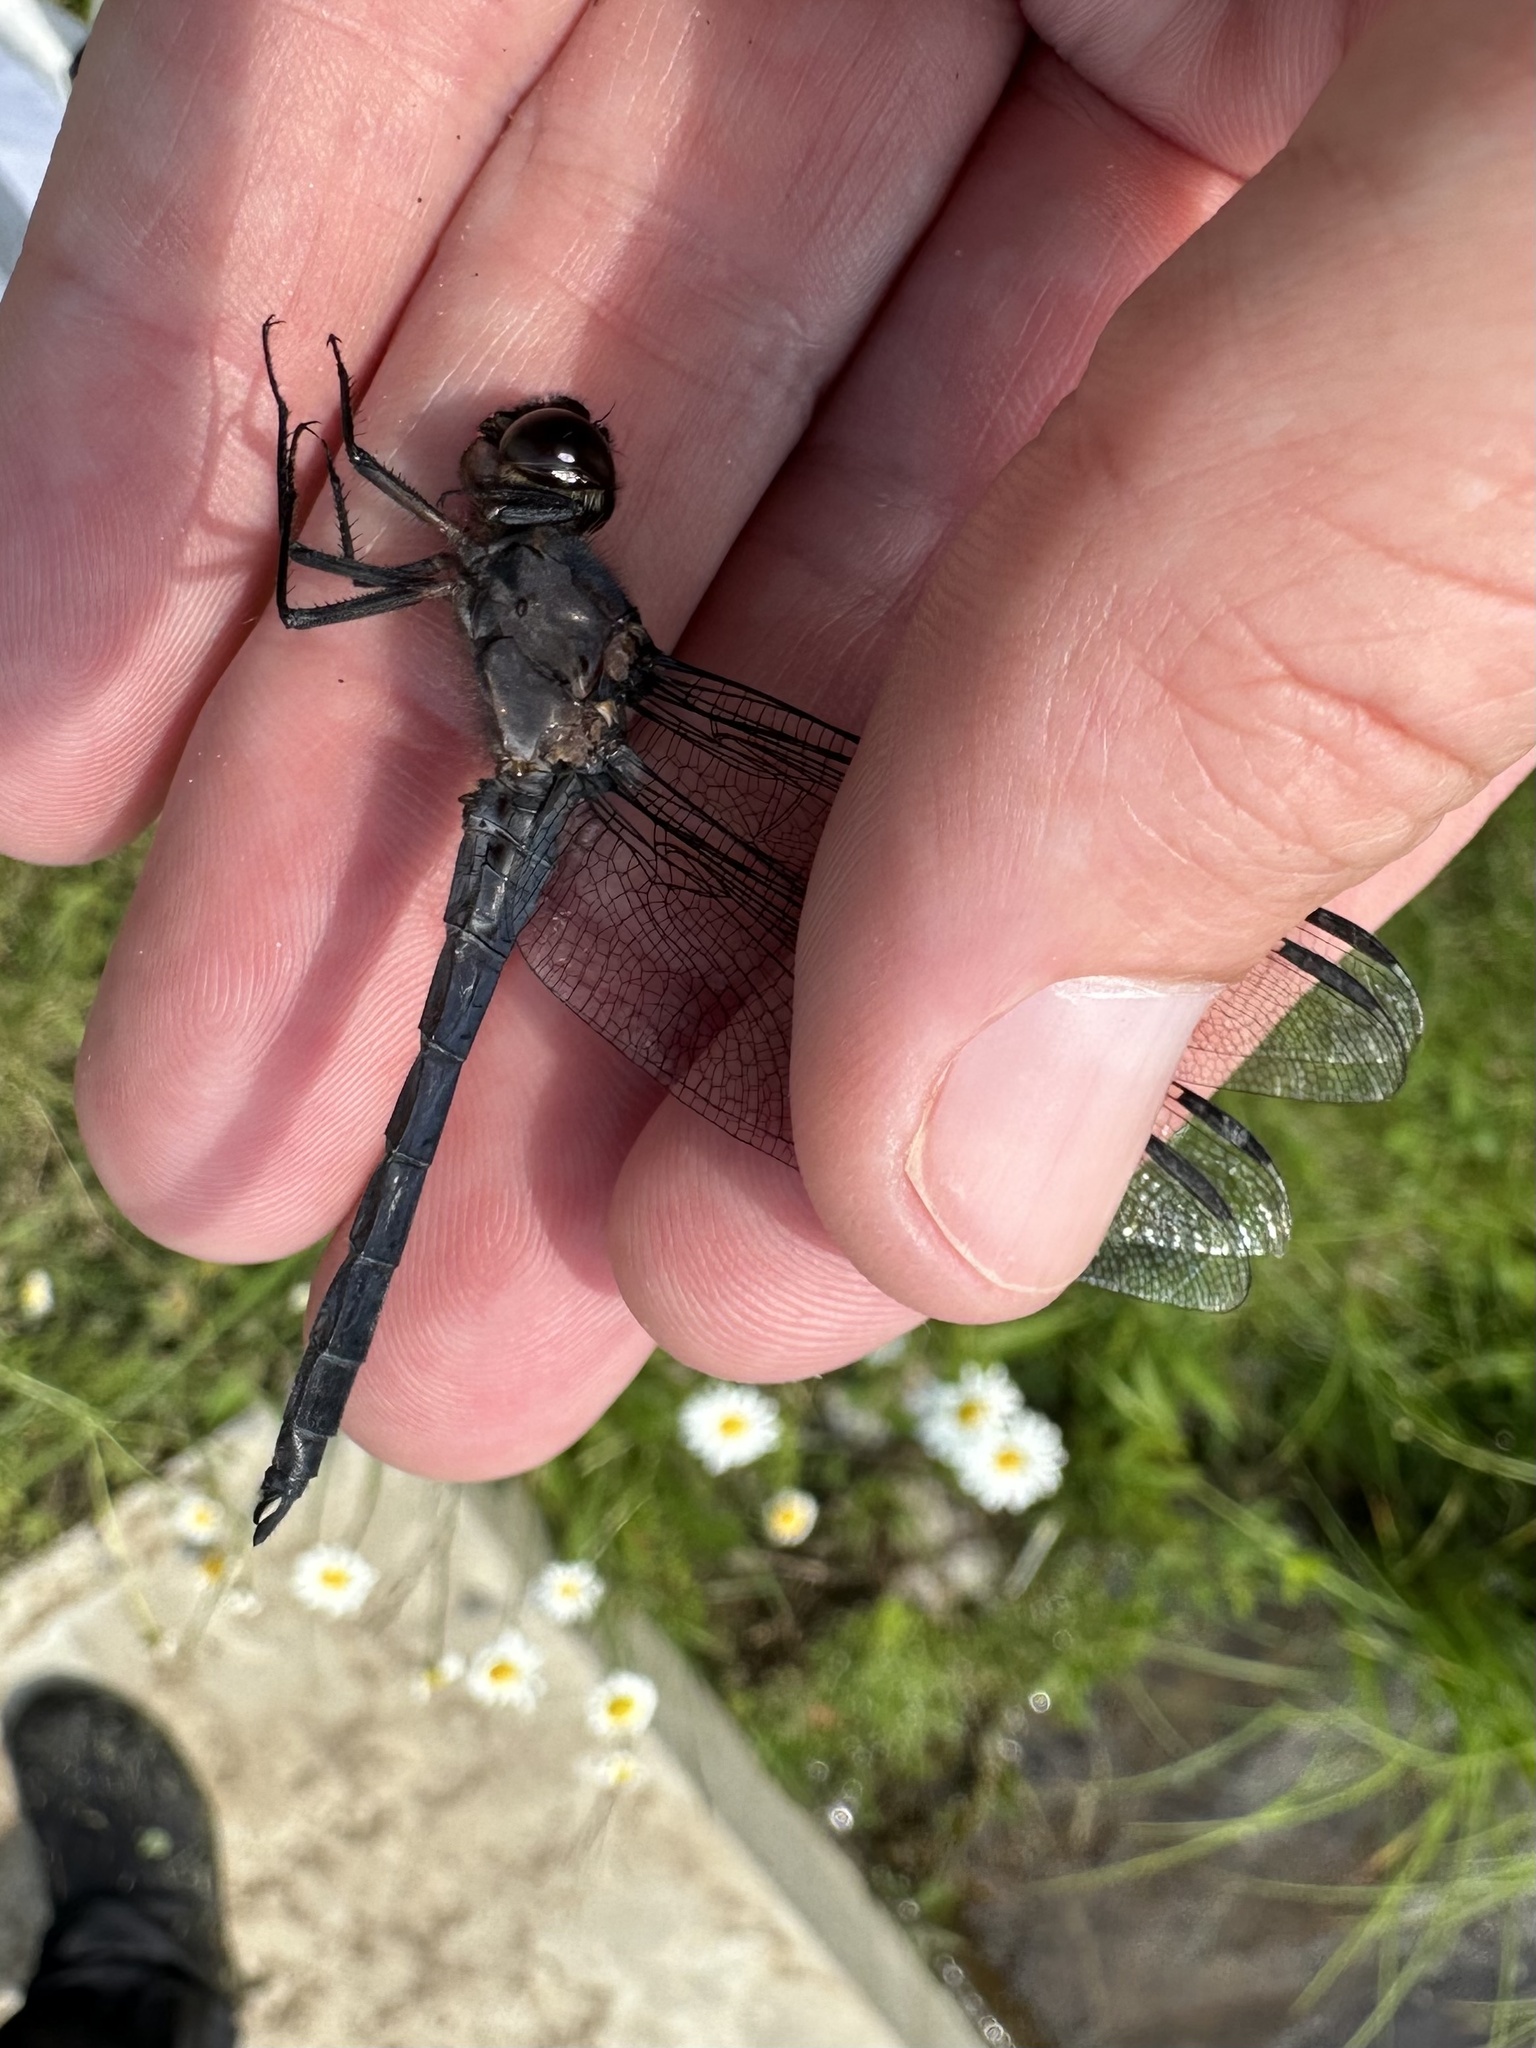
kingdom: Animalia
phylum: Arthropoda
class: Insecta
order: Odonata
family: Libellulidae
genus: Libellula
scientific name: Libellula incesta
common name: Slaty skimmer
